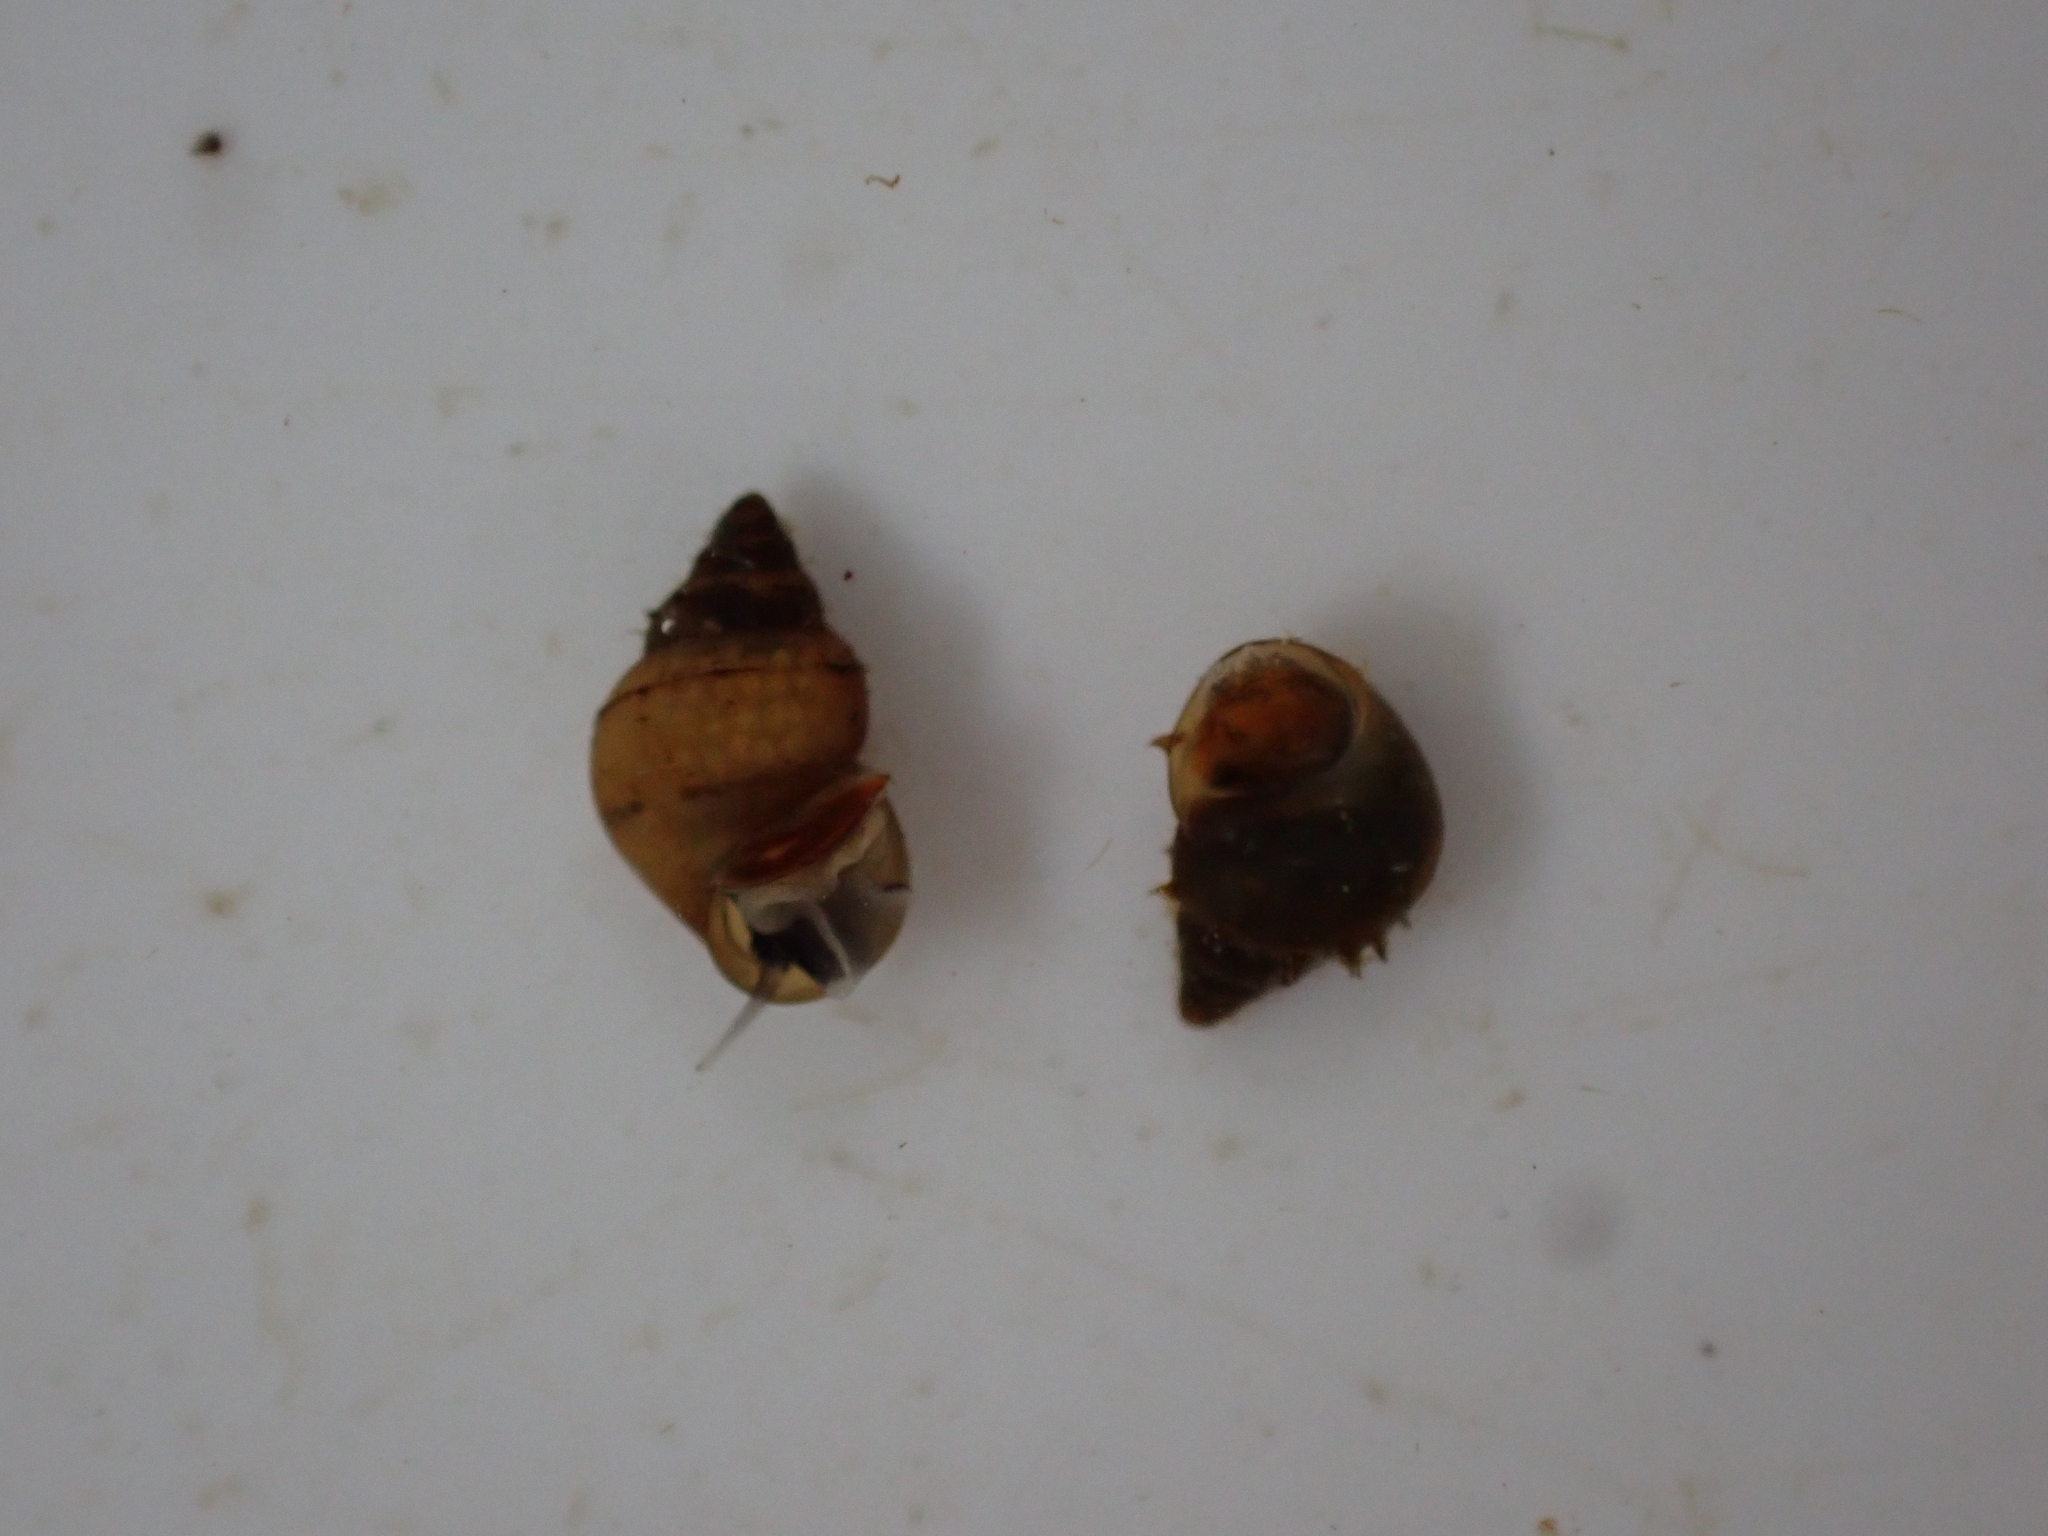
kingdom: Animalia
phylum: Mollusca
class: Gastropoda
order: Littorinimorpha
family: Tateidae
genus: Potamopyrgus
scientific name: Potamopyrgus antipodarum
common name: Jenkins' spire snail
